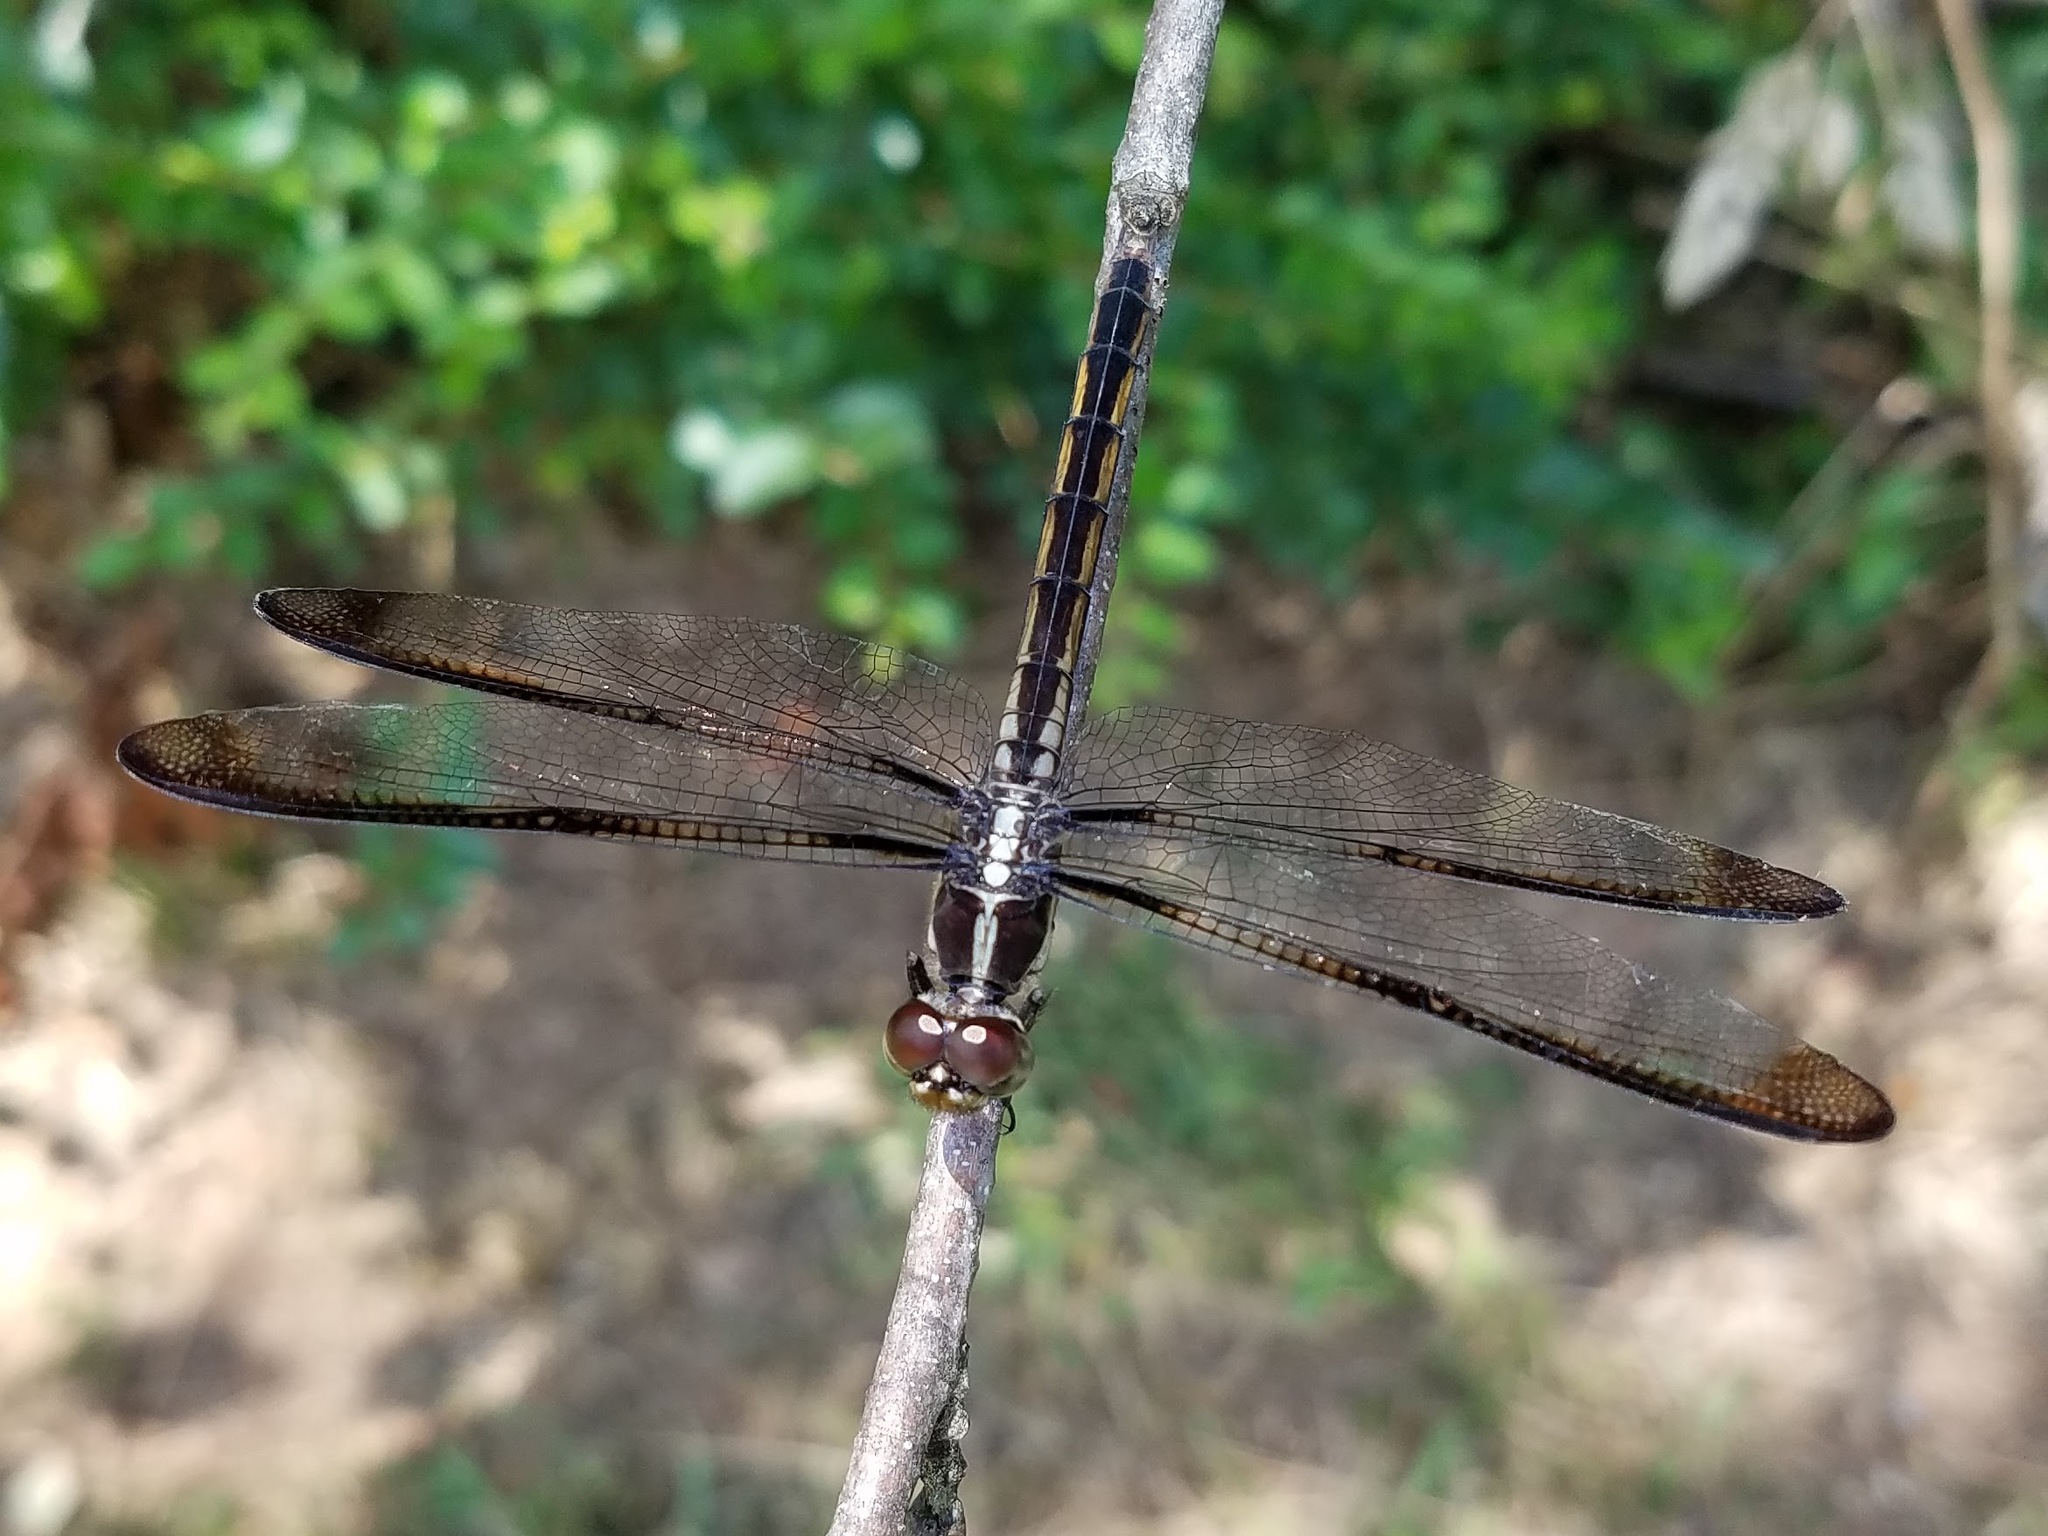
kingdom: Animalia
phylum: Arthropoda
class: Insecta
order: Odonata
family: Libellulidae
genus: Libellula
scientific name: Libellula incesta
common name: Slaty skimmer
